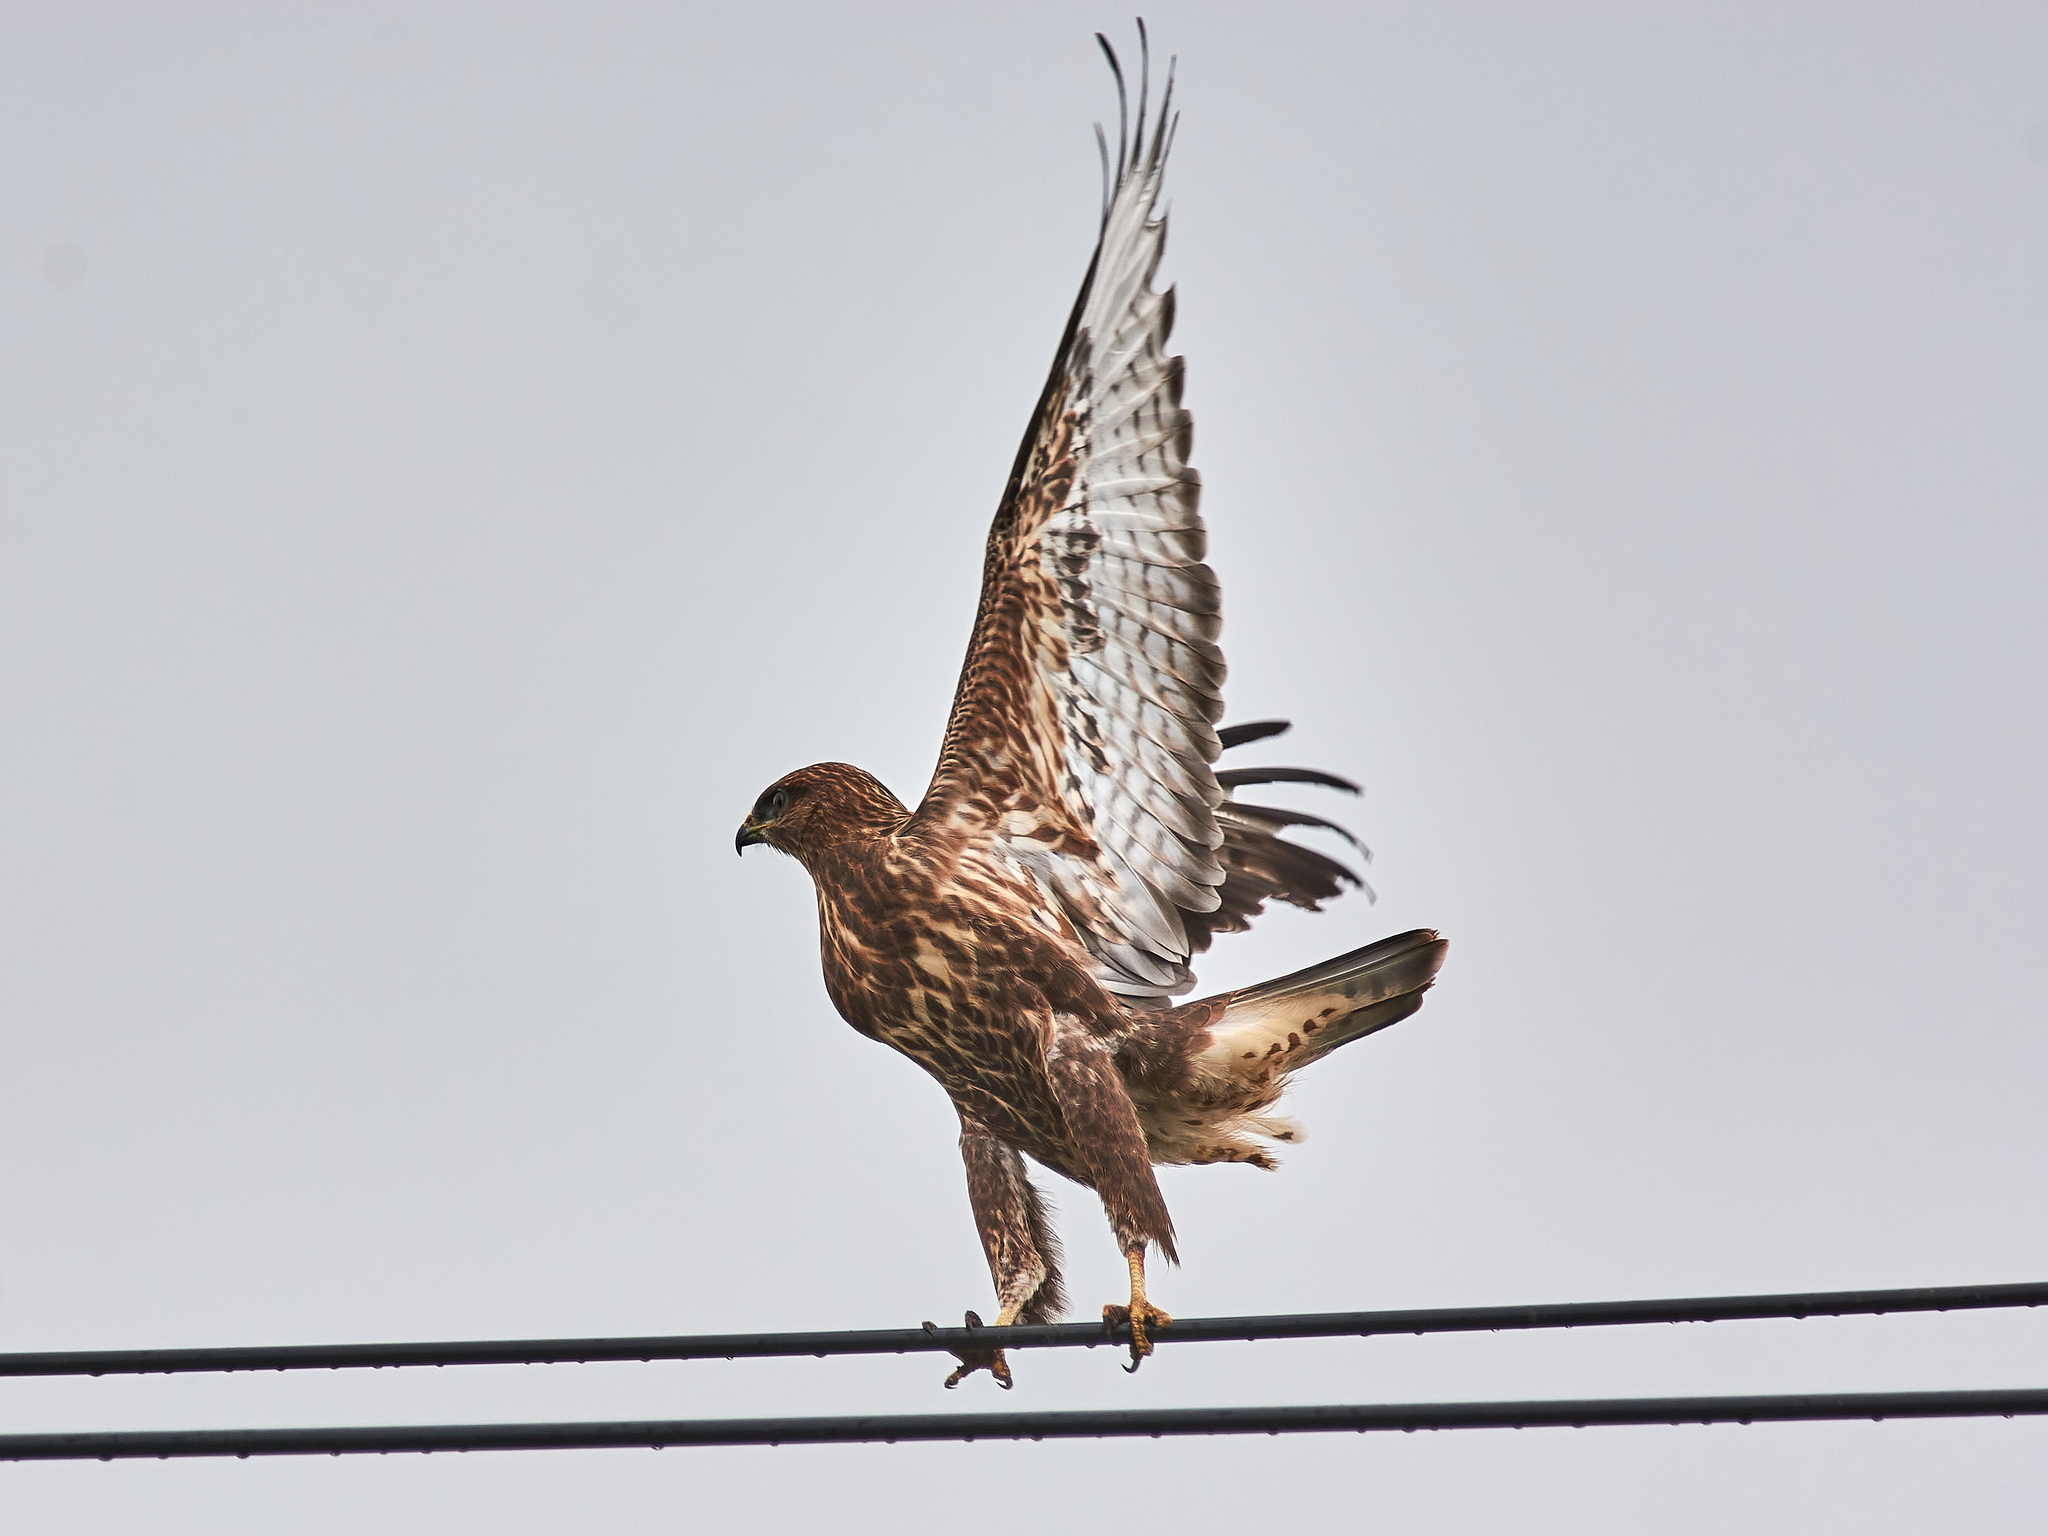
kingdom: Animalia
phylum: Chordata
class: Aves
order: Accipitriformes
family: Accipitridae
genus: Buteo
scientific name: Buteo buteo
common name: Common buzzard
